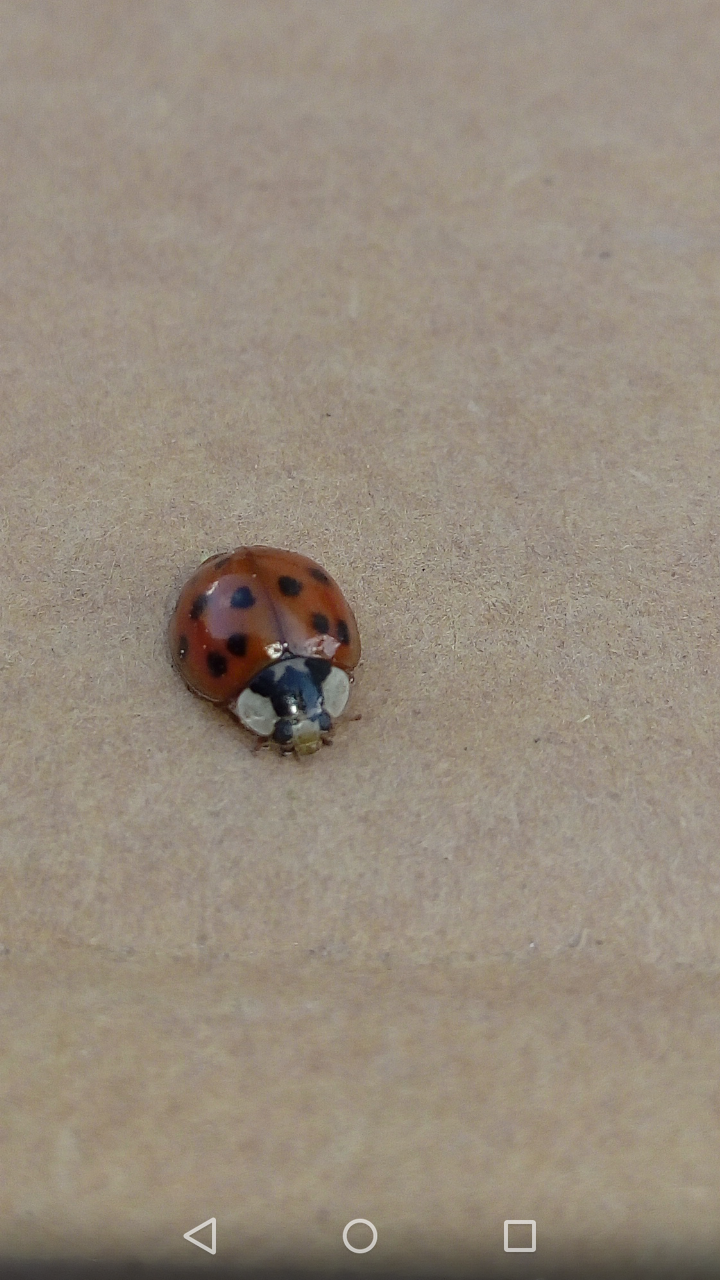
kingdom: Animalia
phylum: Arthropoda
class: Insecta
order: Coleoptera
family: Coccinellidae
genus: Harmonia
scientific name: Harmonia axyridis
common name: Harlequin ladybird
